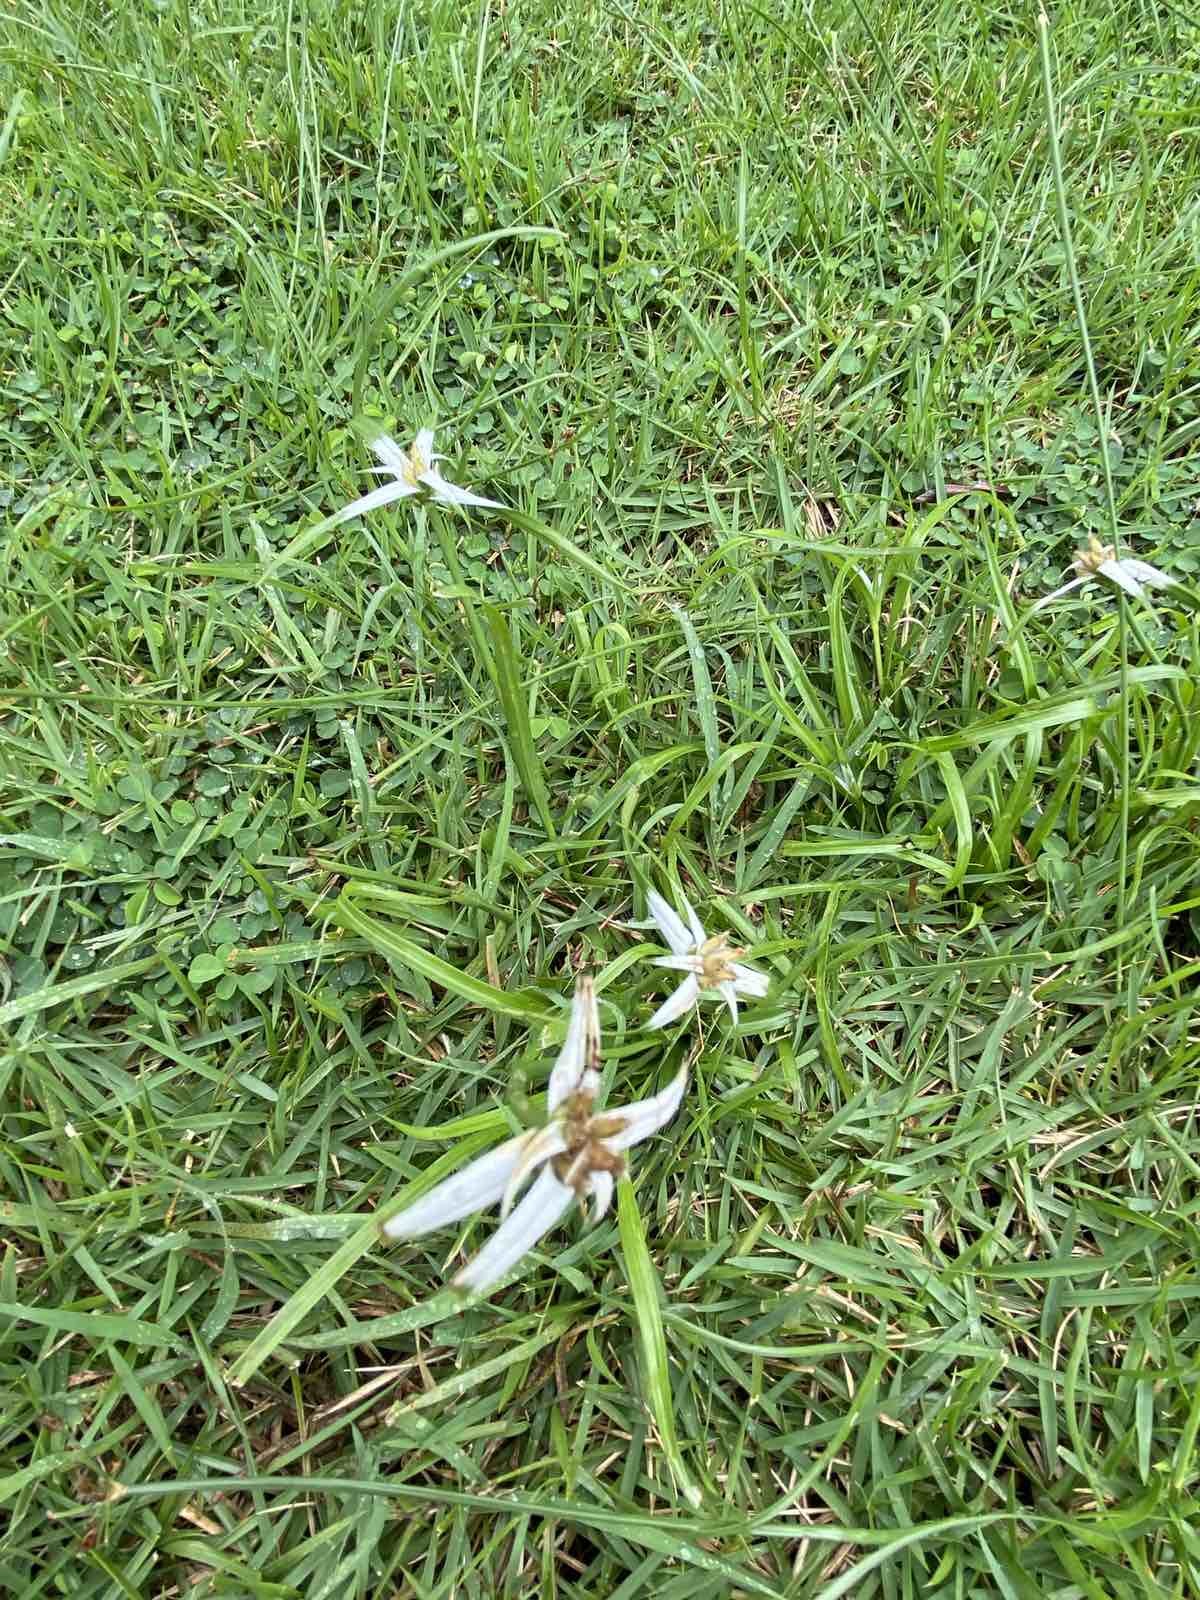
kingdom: Plantae
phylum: Tracheophyta
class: Liliopsida
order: Poales
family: Cyperaceae
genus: Rhynchospora
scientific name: Rhynchospora colorata
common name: Star sedge
